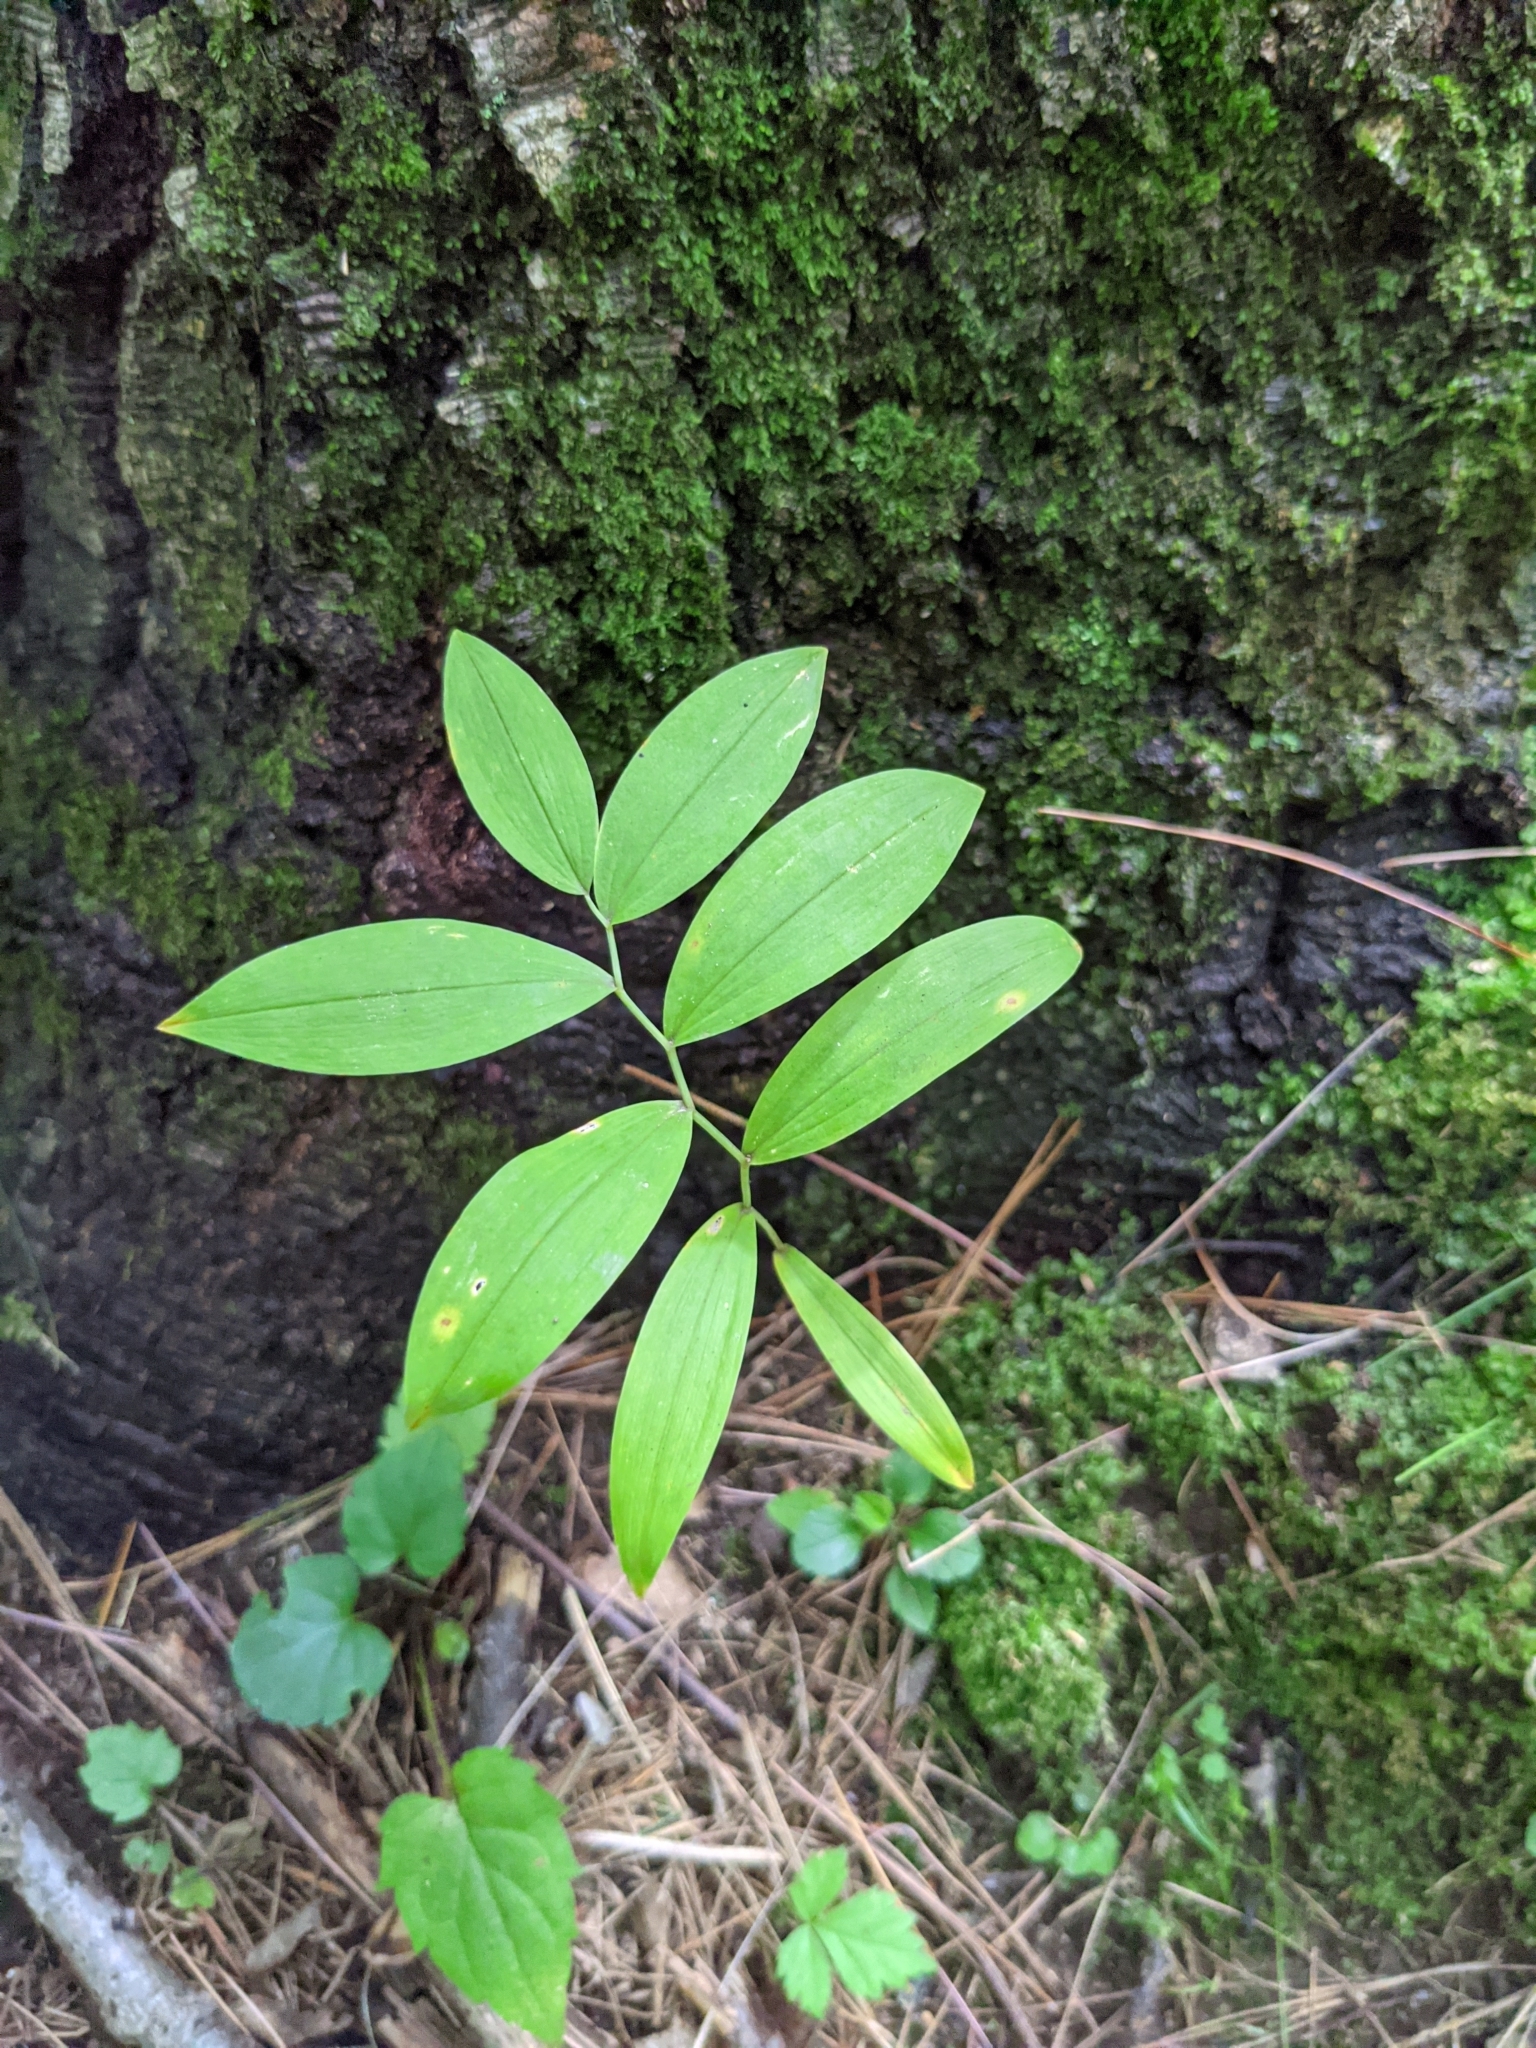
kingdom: Plantae
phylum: Tracheophyta
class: Liliopsida
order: Liliales
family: Colchicaceae
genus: Uvularia
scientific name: Uvularia sessilifolia
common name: Straw-lily
